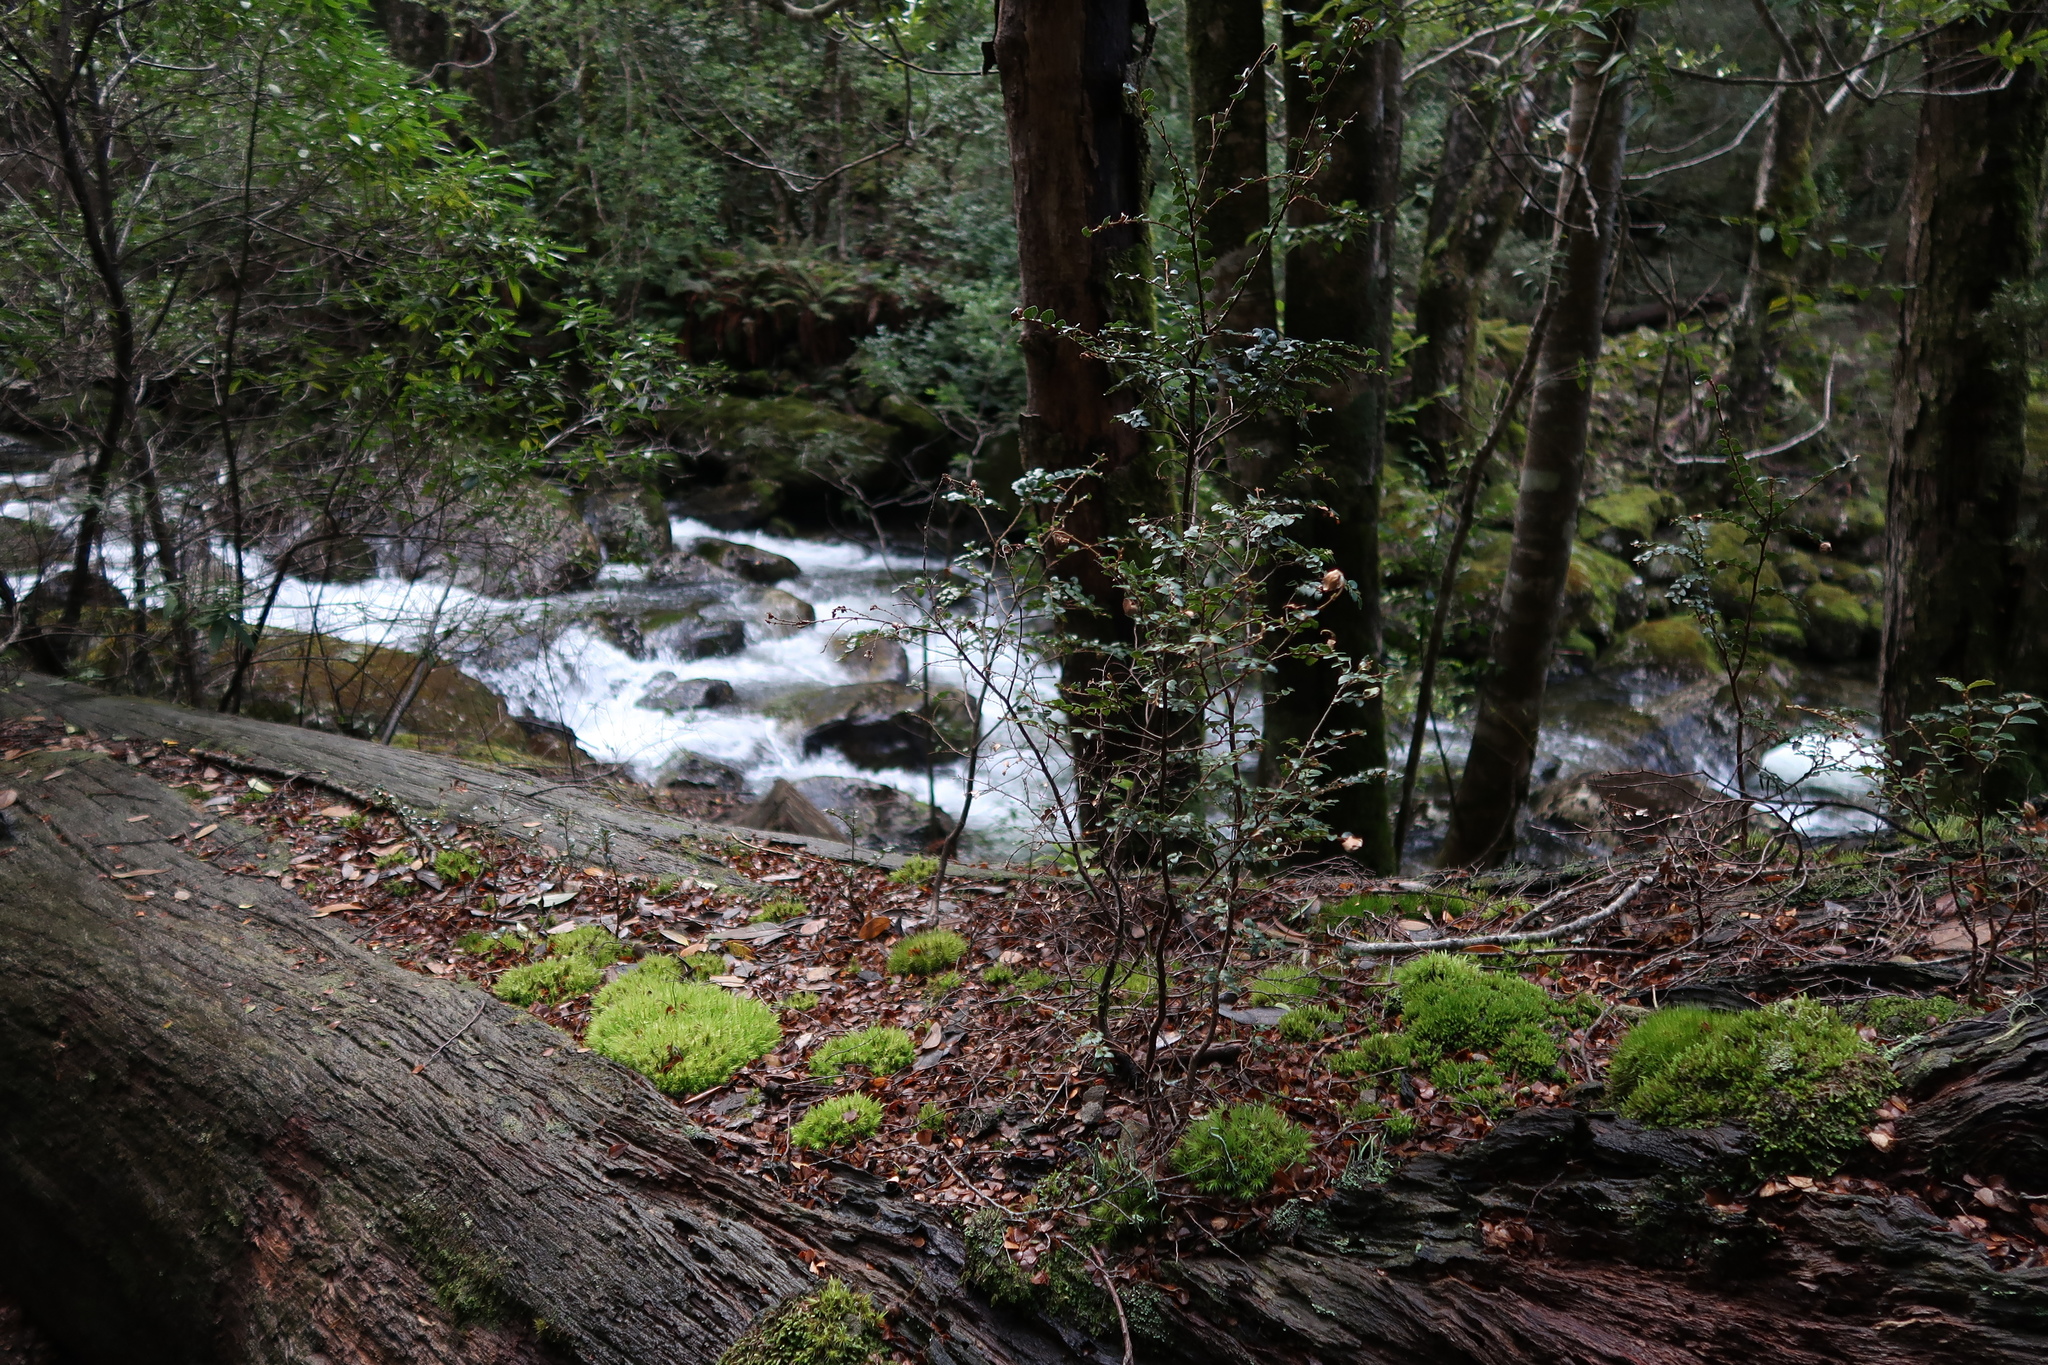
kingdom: Plantae
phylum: Tracheophyta
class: Magnoliopsida
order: Fagales
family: Nothofagaceae
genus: Nothofagus
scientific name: Nothofagus cunninghamii
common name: Myrtle beech
